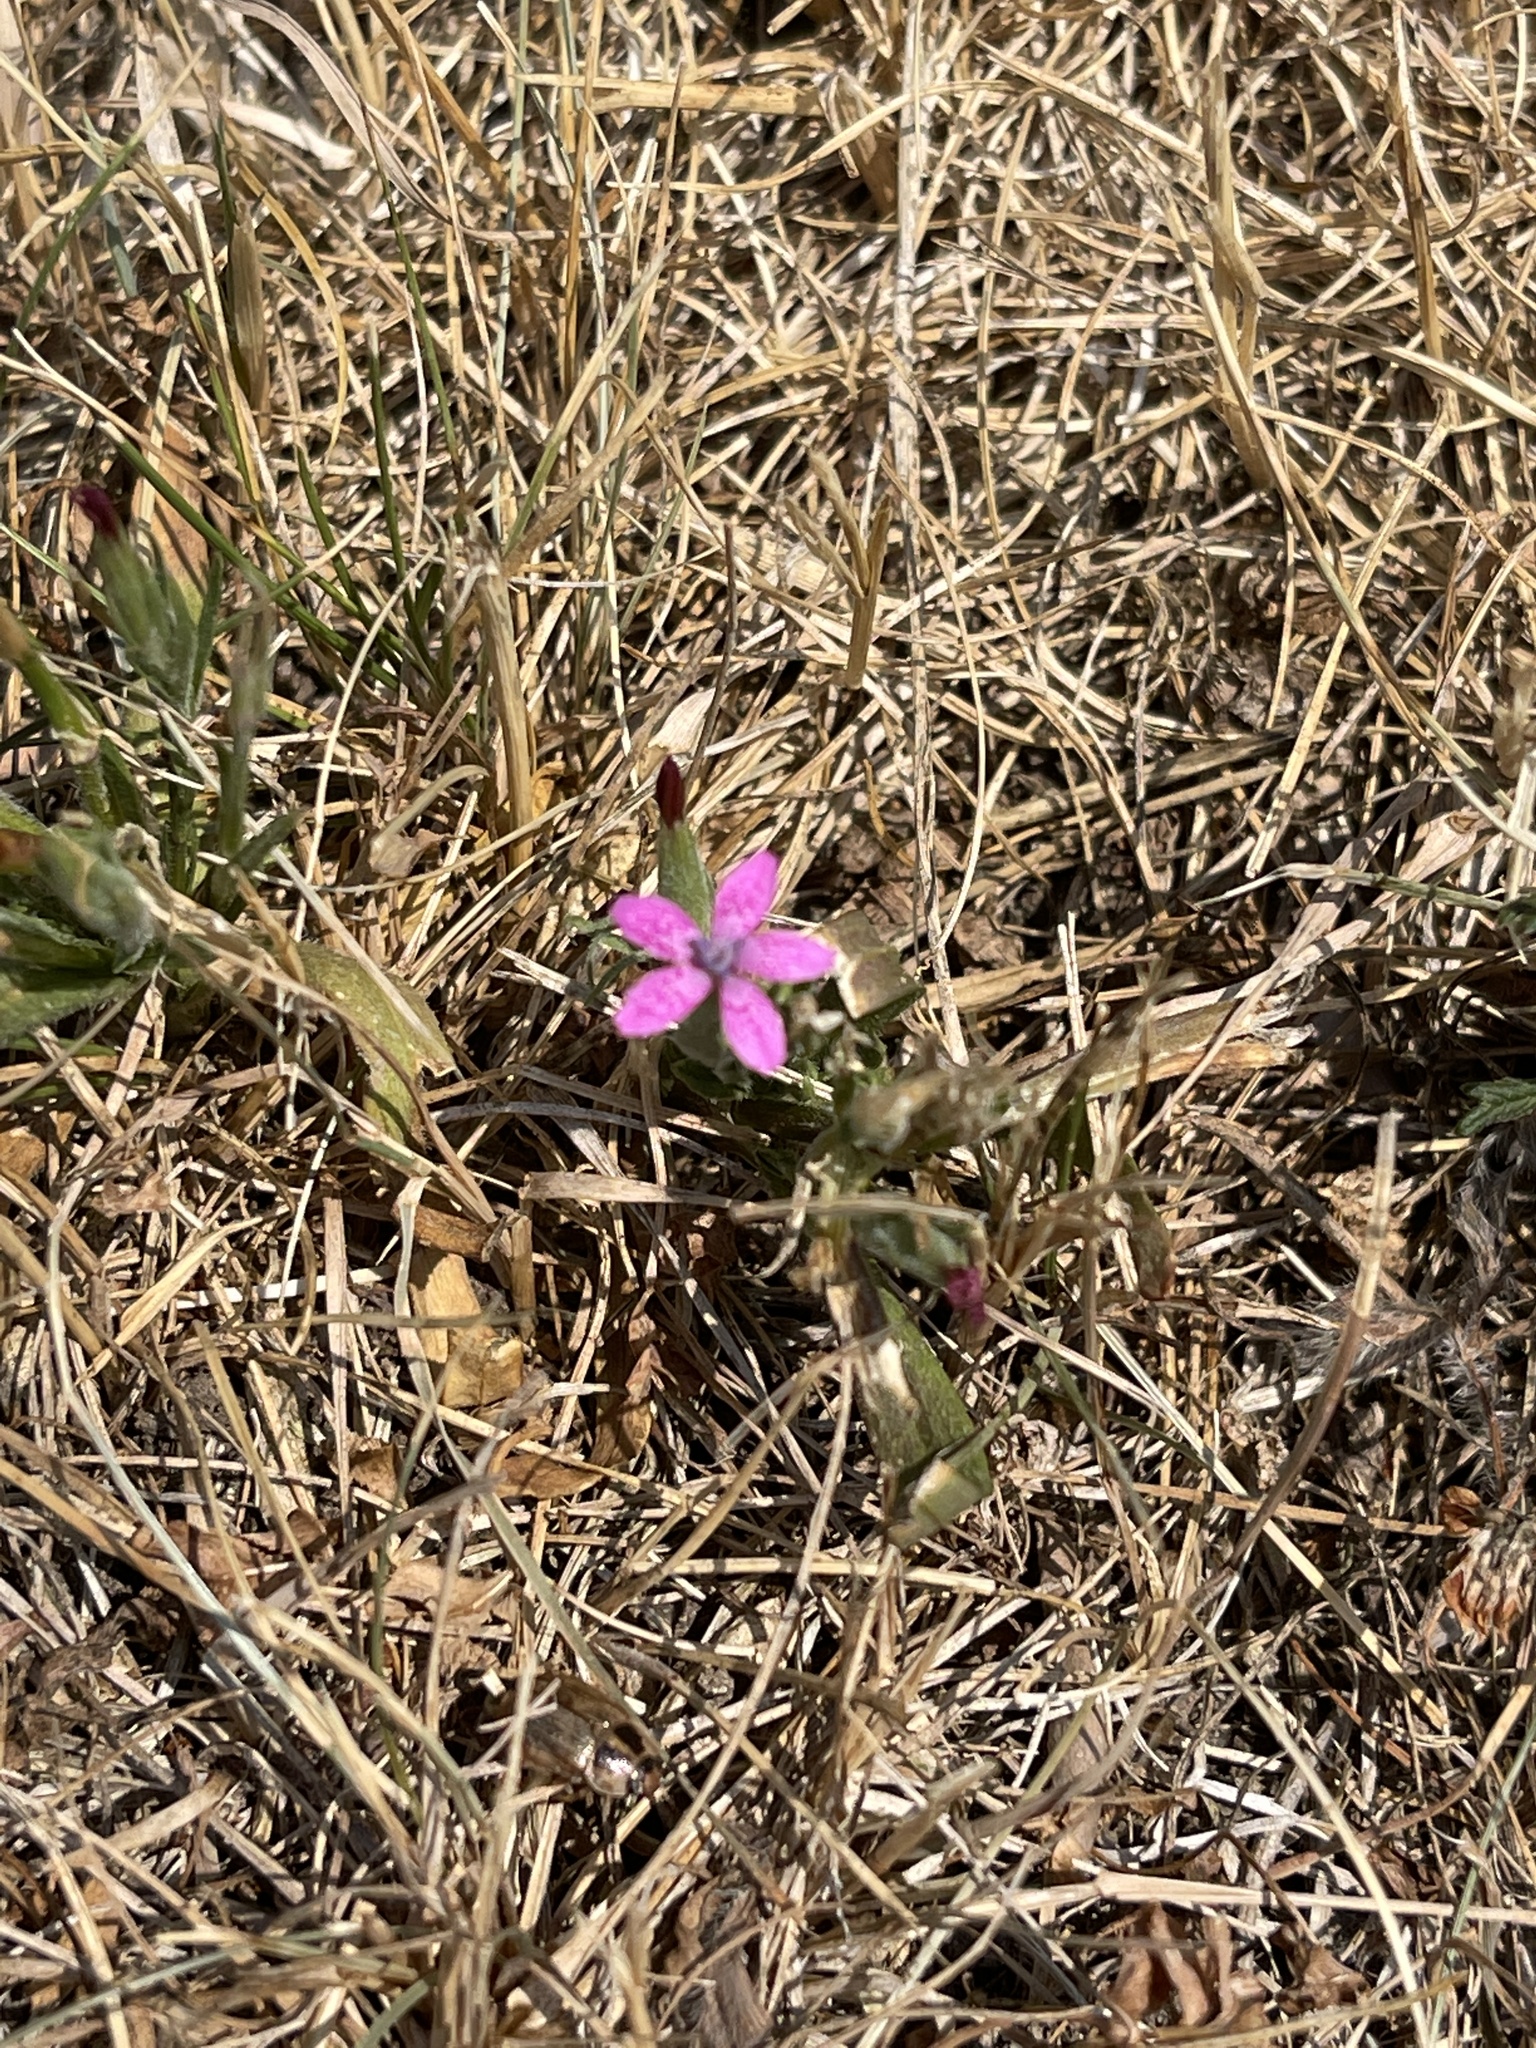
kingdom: Plantae
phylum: Tracheophyta
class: Magnoliopsida
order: Caryophyllales
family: Caryophyllaceae
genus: Dianthus
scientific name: Dianthus armeria
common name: Deptford pink
